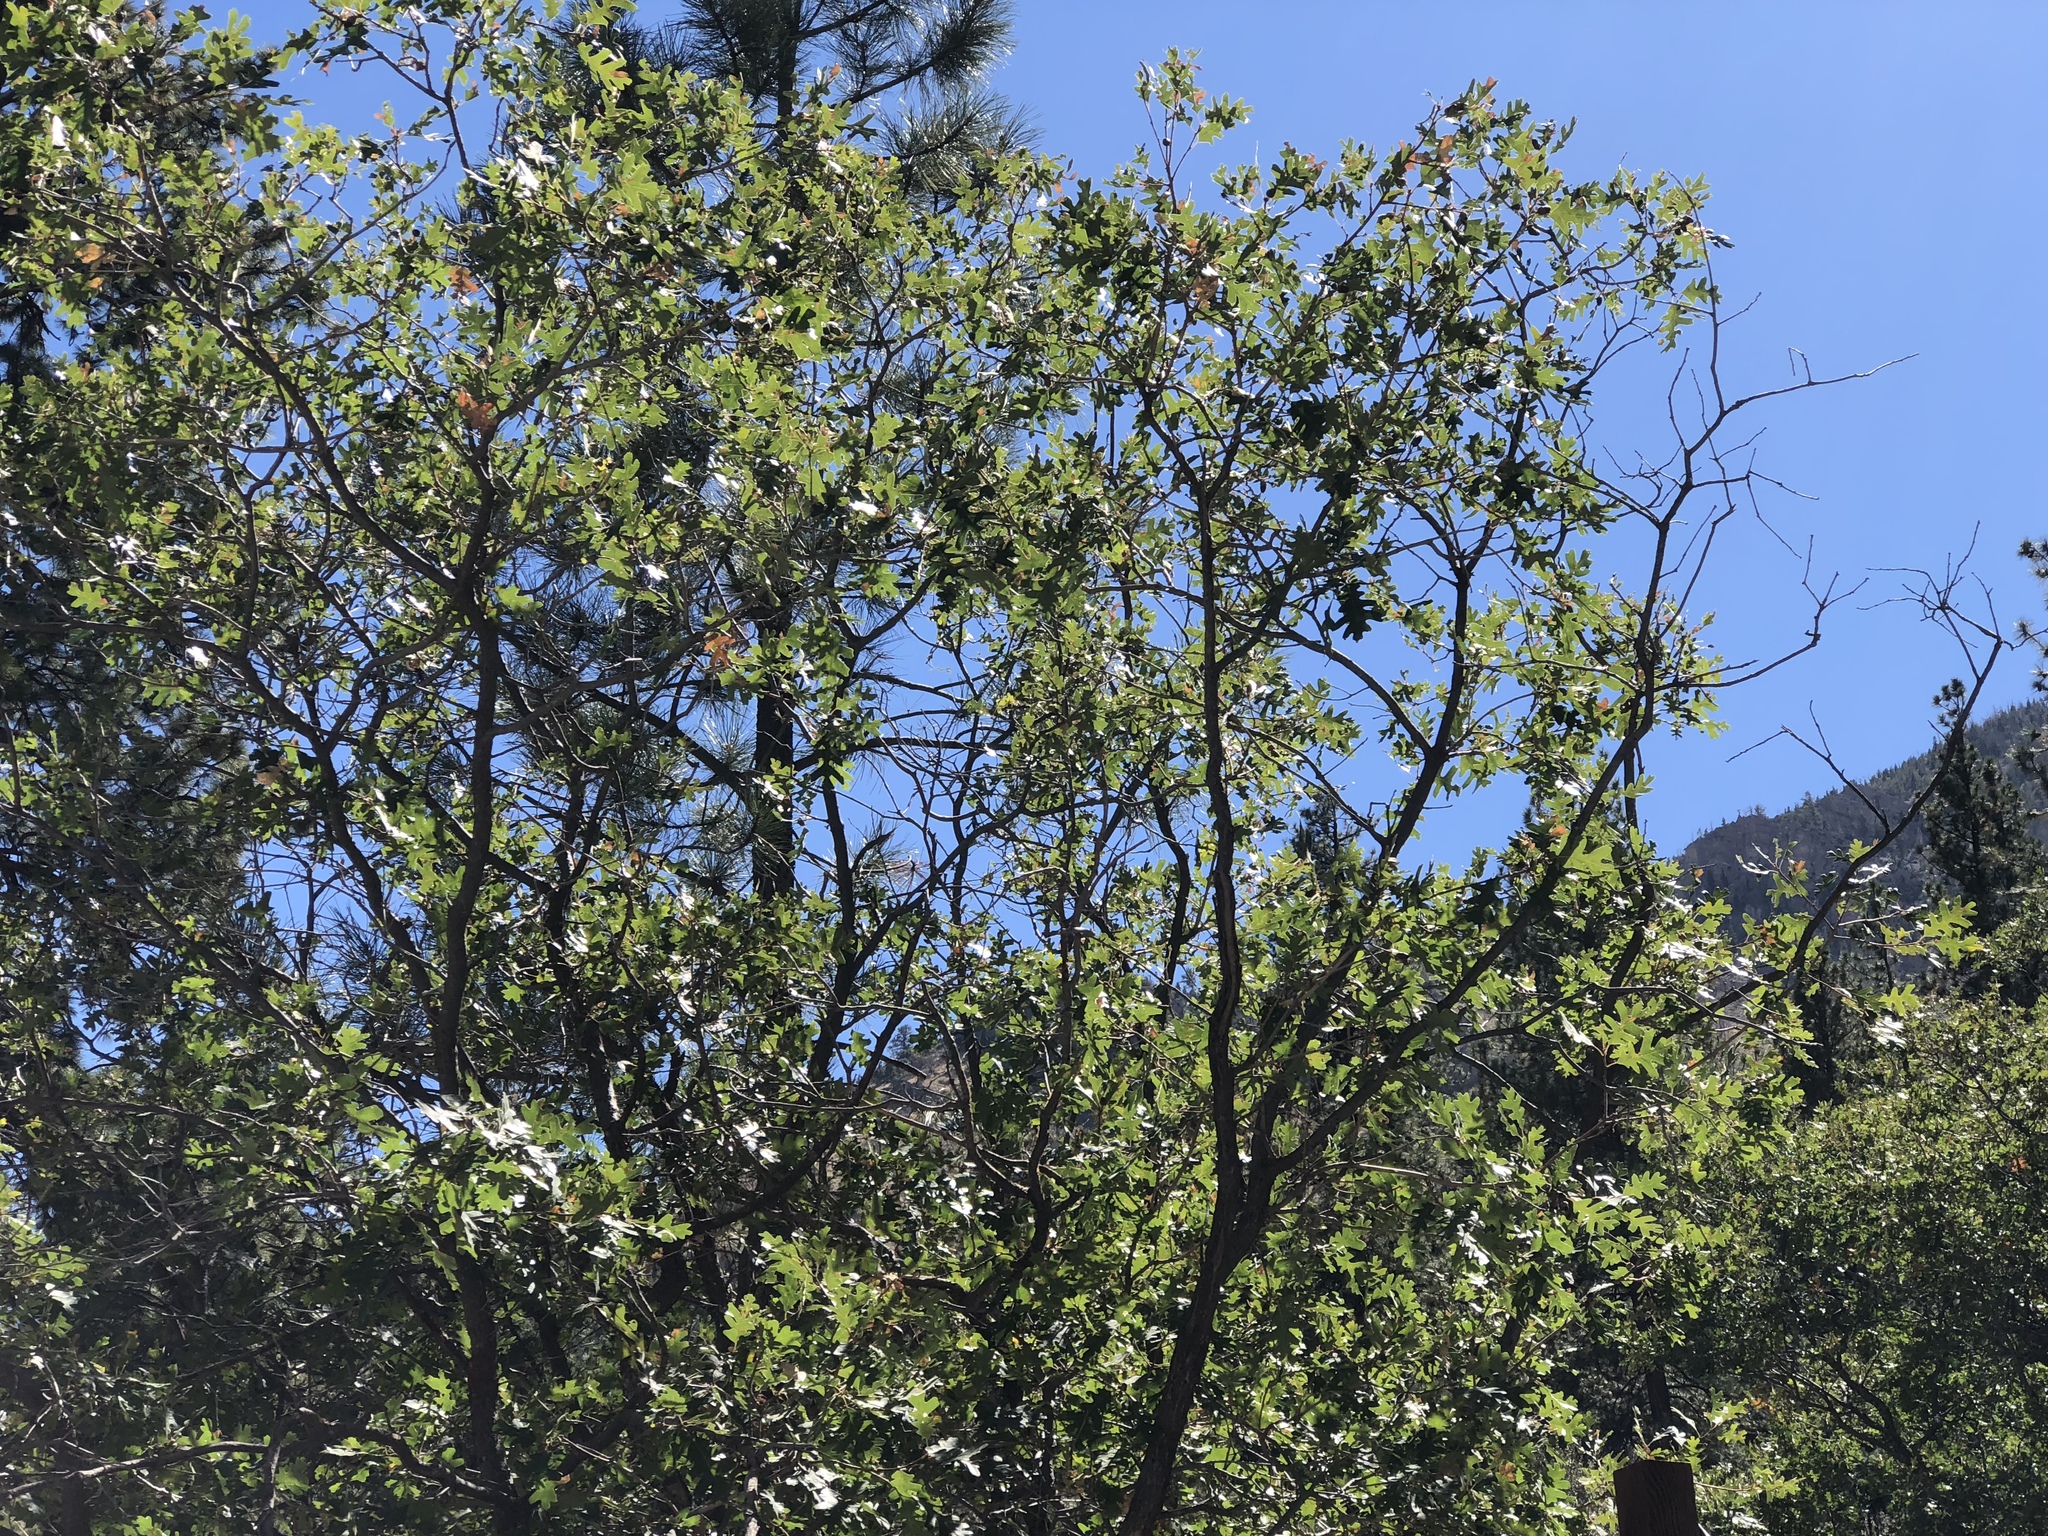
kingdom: Plantae
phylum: Tracheophyta
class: Magnoliopsida
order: Fagales
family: Fagaceae
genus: Quercus
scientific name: Quercus gambelii
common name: Gambel oak
